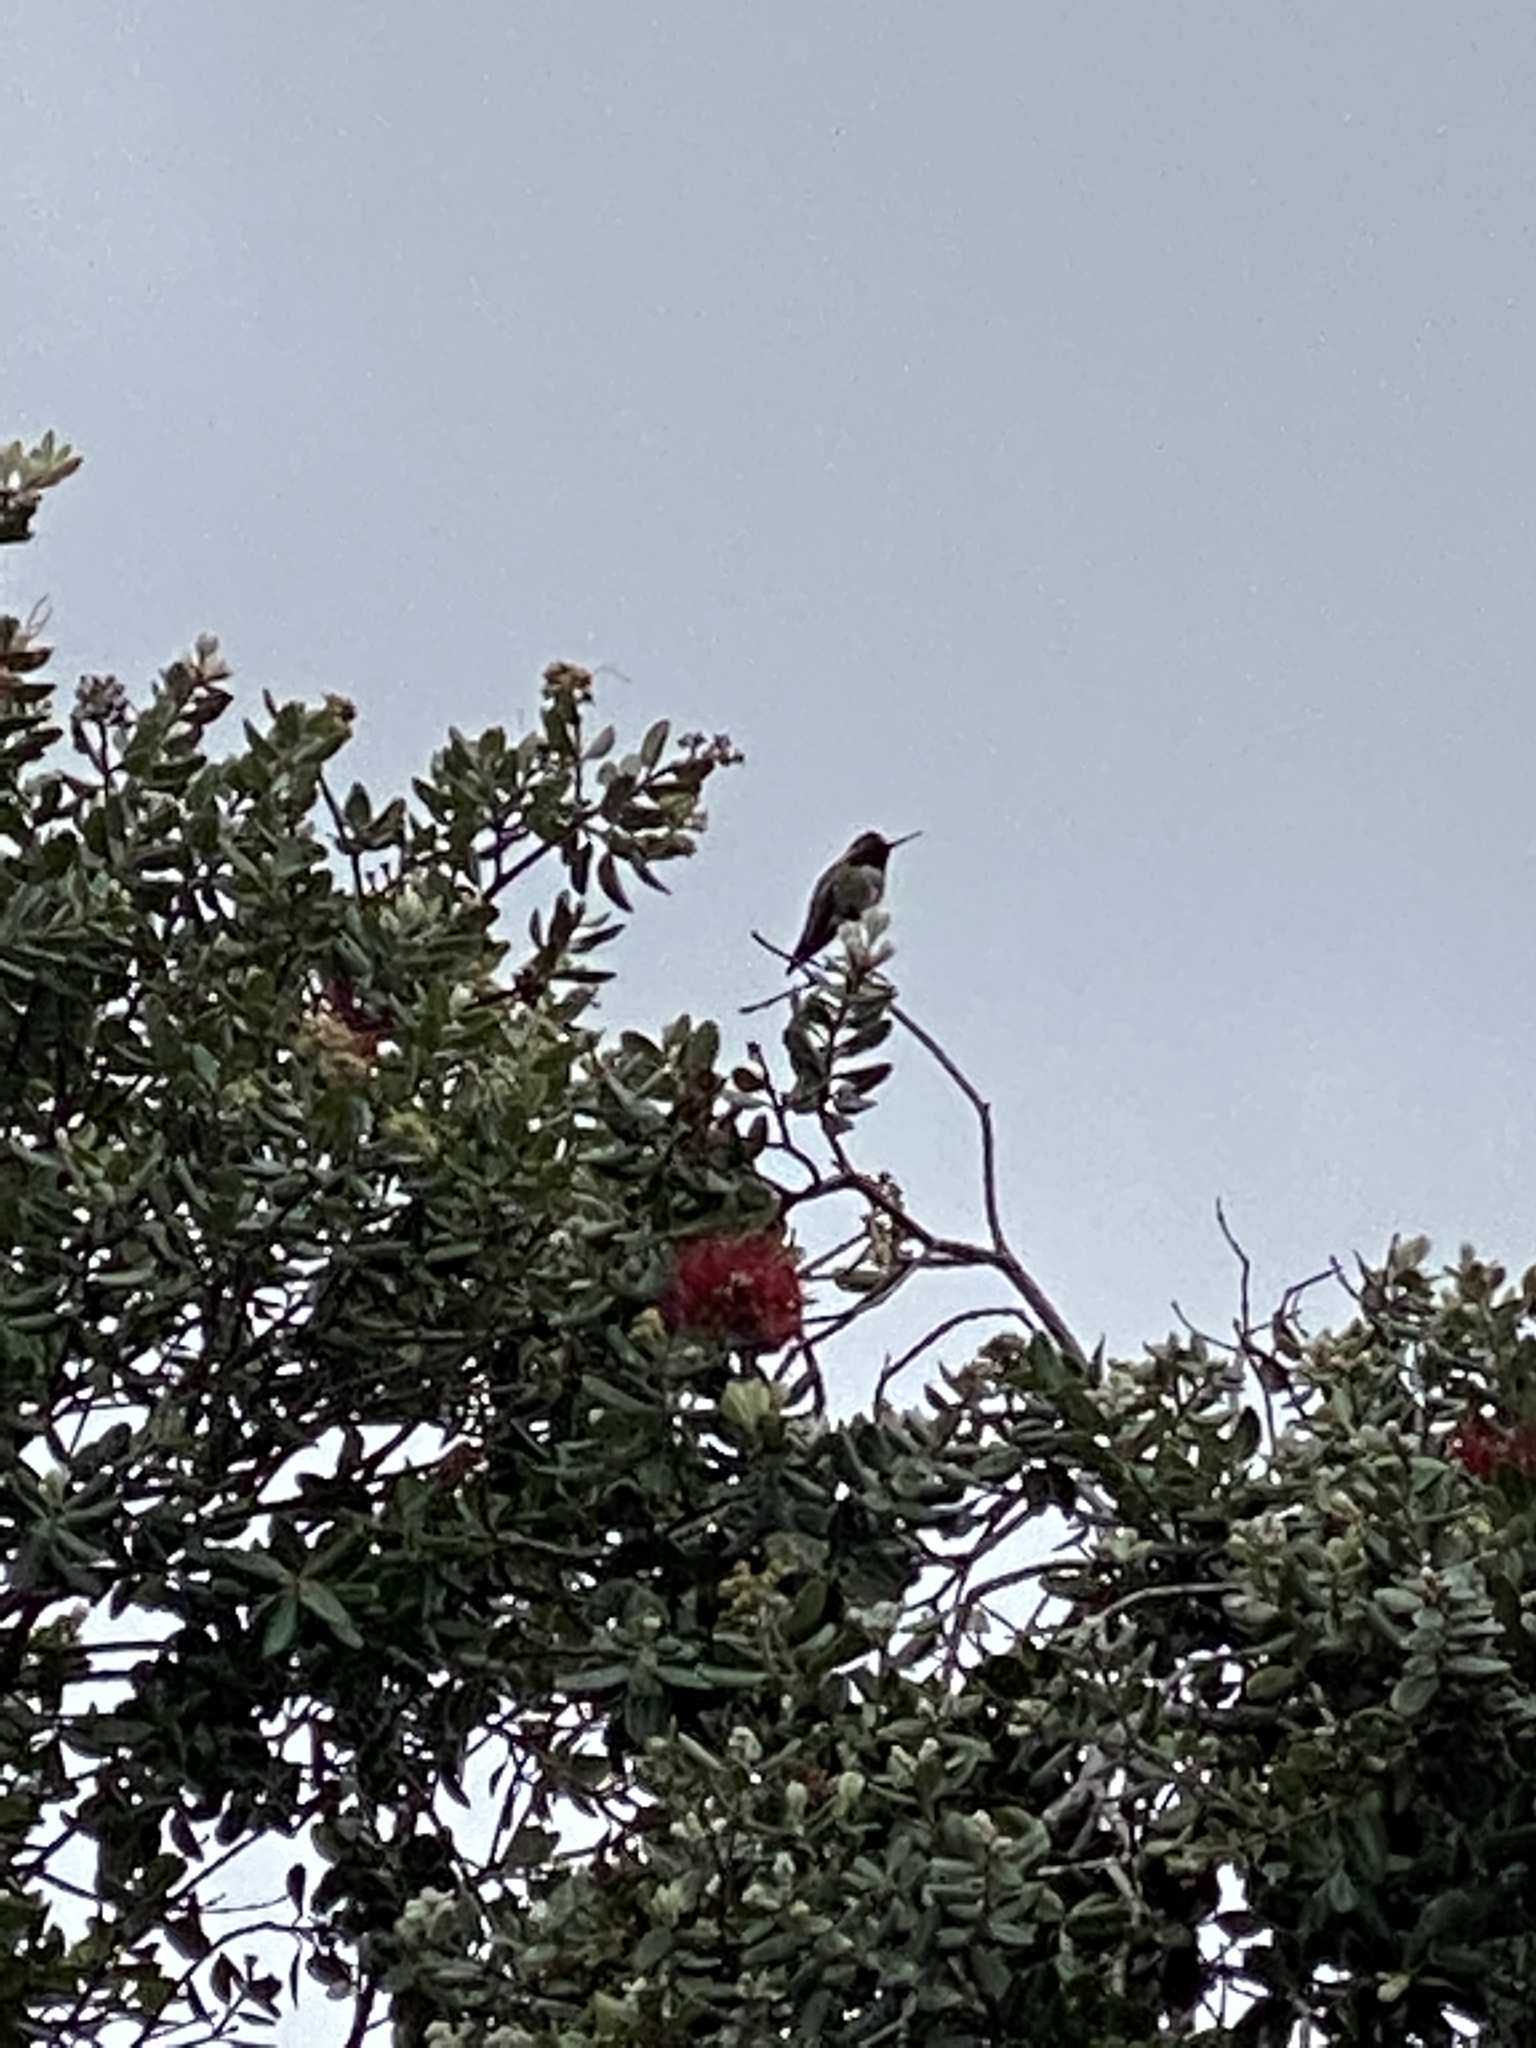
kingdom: Animalia
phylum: Chordata
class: Aves
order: Apodiformes
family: Trochilidae
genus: Calypte
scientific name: Calypte anna
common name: Anna's hummingbird
